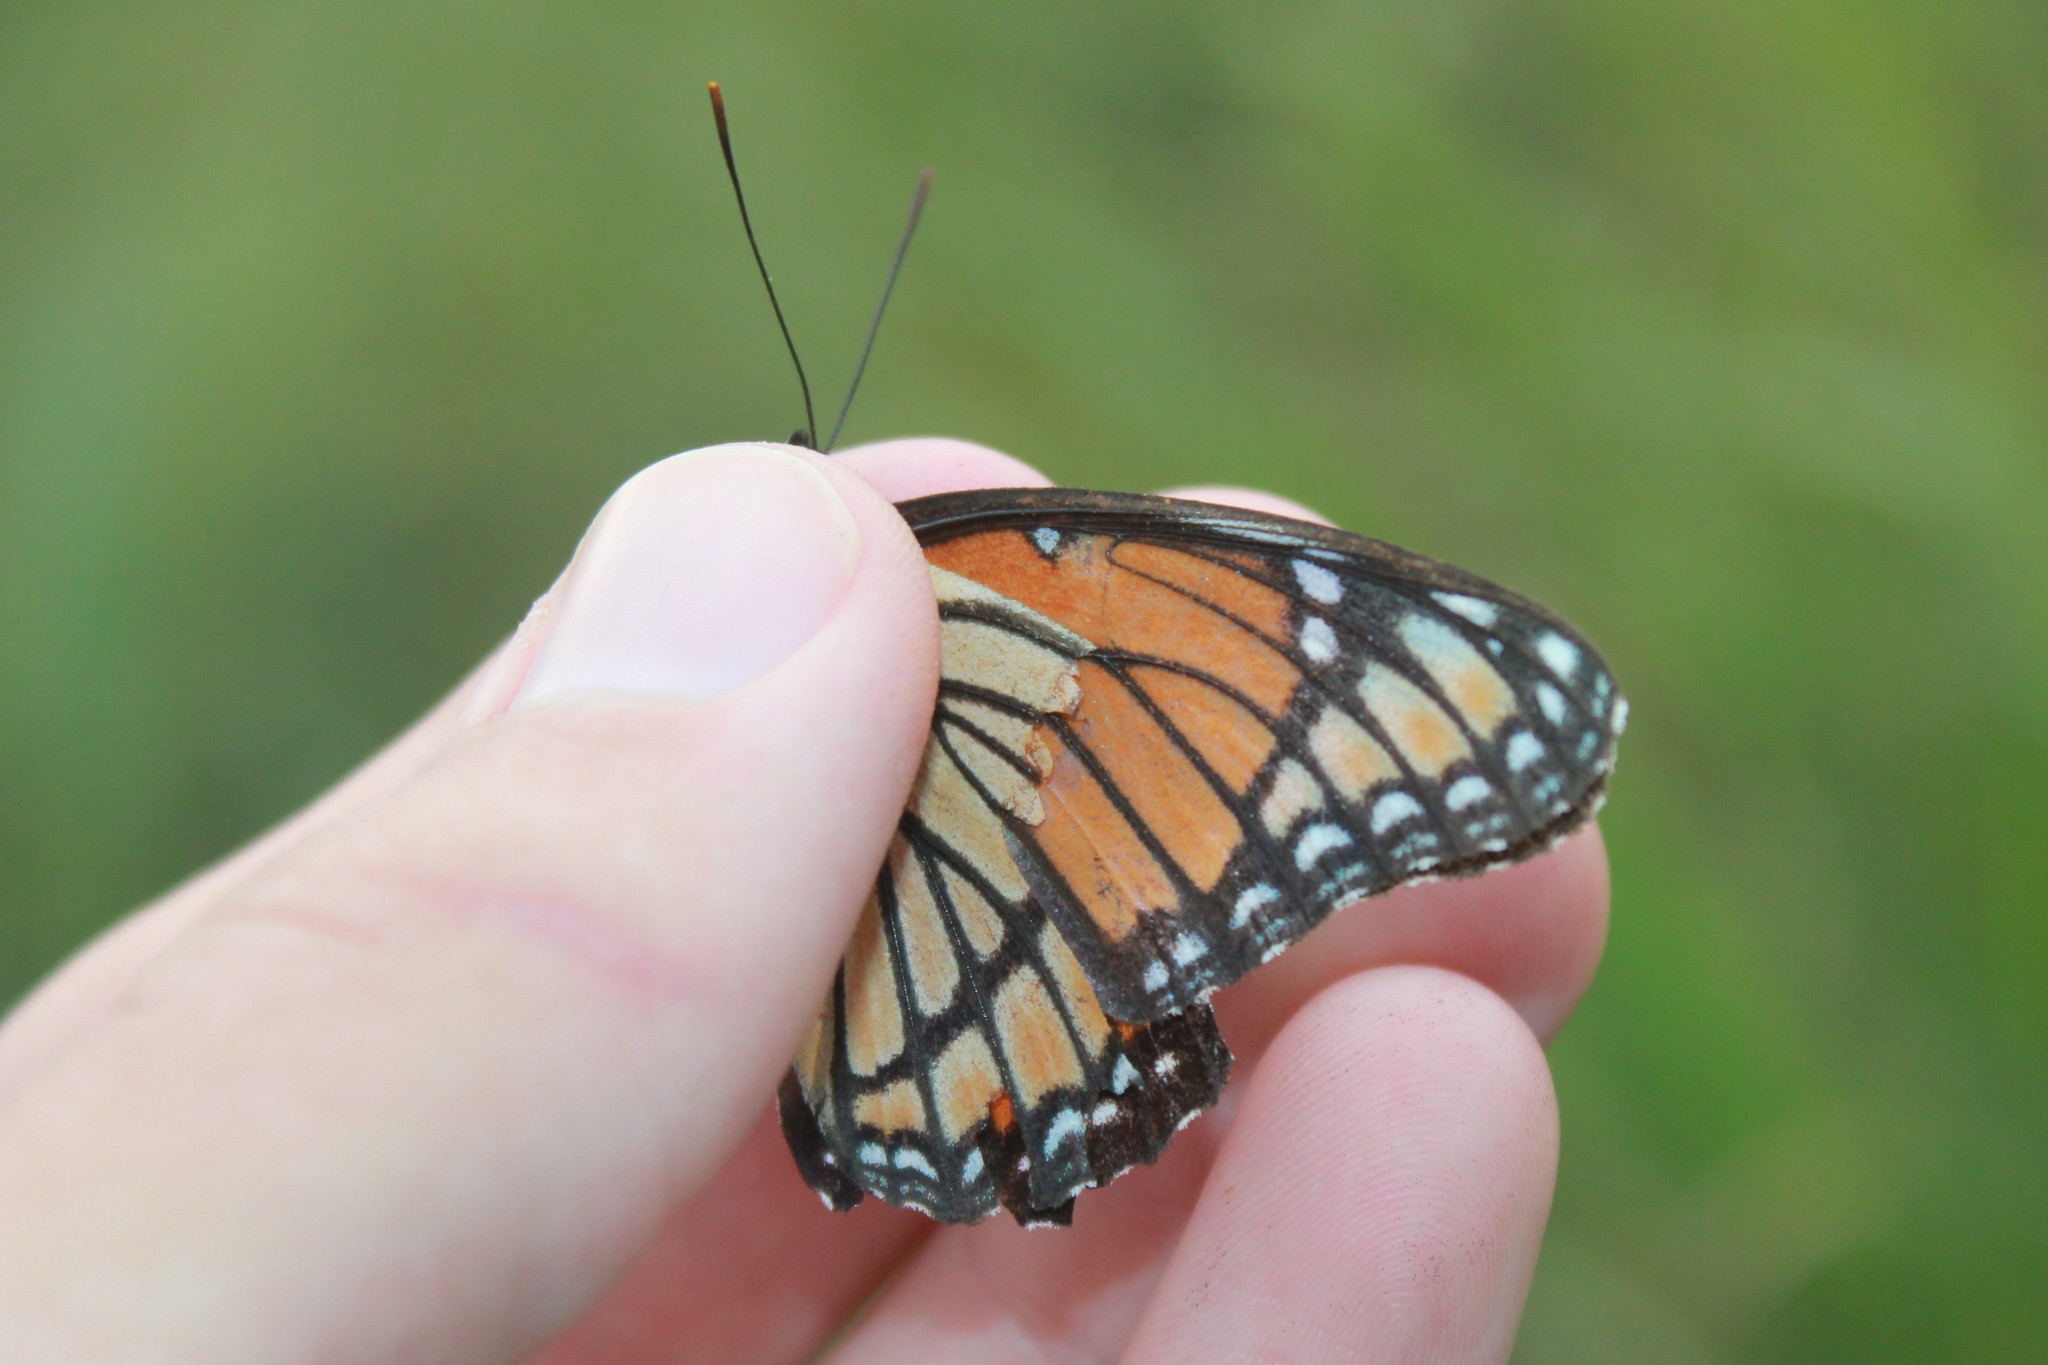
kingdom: Animalia
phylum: Arthropoda
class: Insecta
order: Lepidoptera
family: Nymphalidae
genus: Limenitis
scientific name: Limenitis archippus
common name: Viceroy
